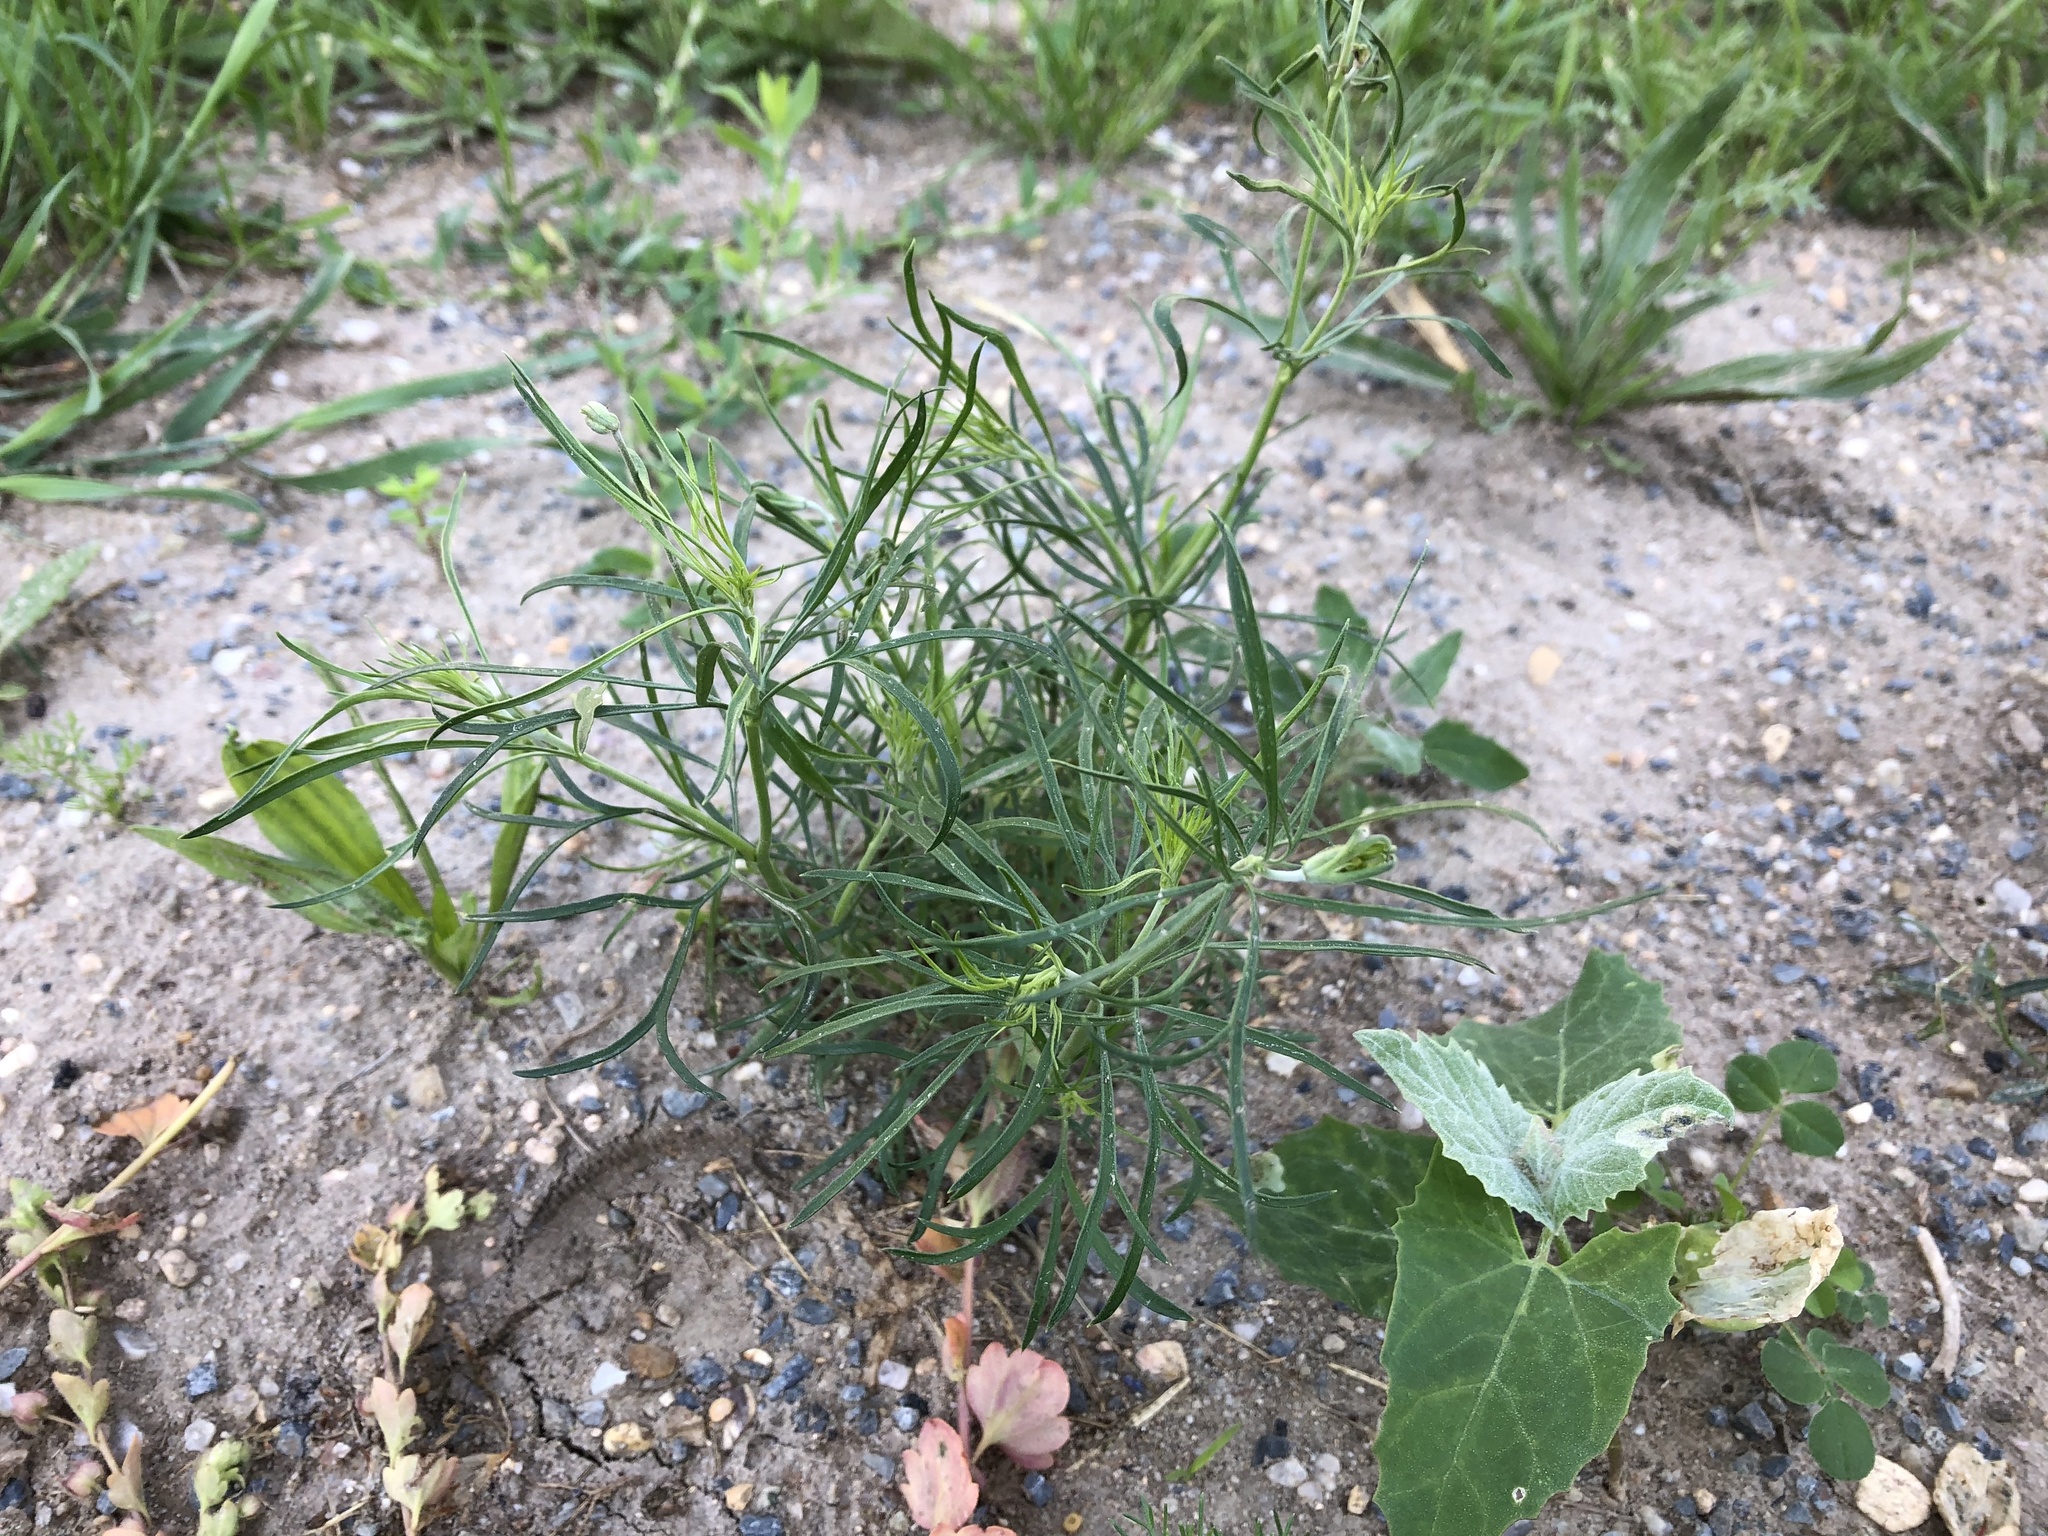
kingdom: Plantae
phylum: Tracheophyta
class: Magnoliopsida
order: Asterales
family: Asteraceae
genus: Senecio
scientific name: Senecio inaequidens
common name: Narrow-leaved ragwort
